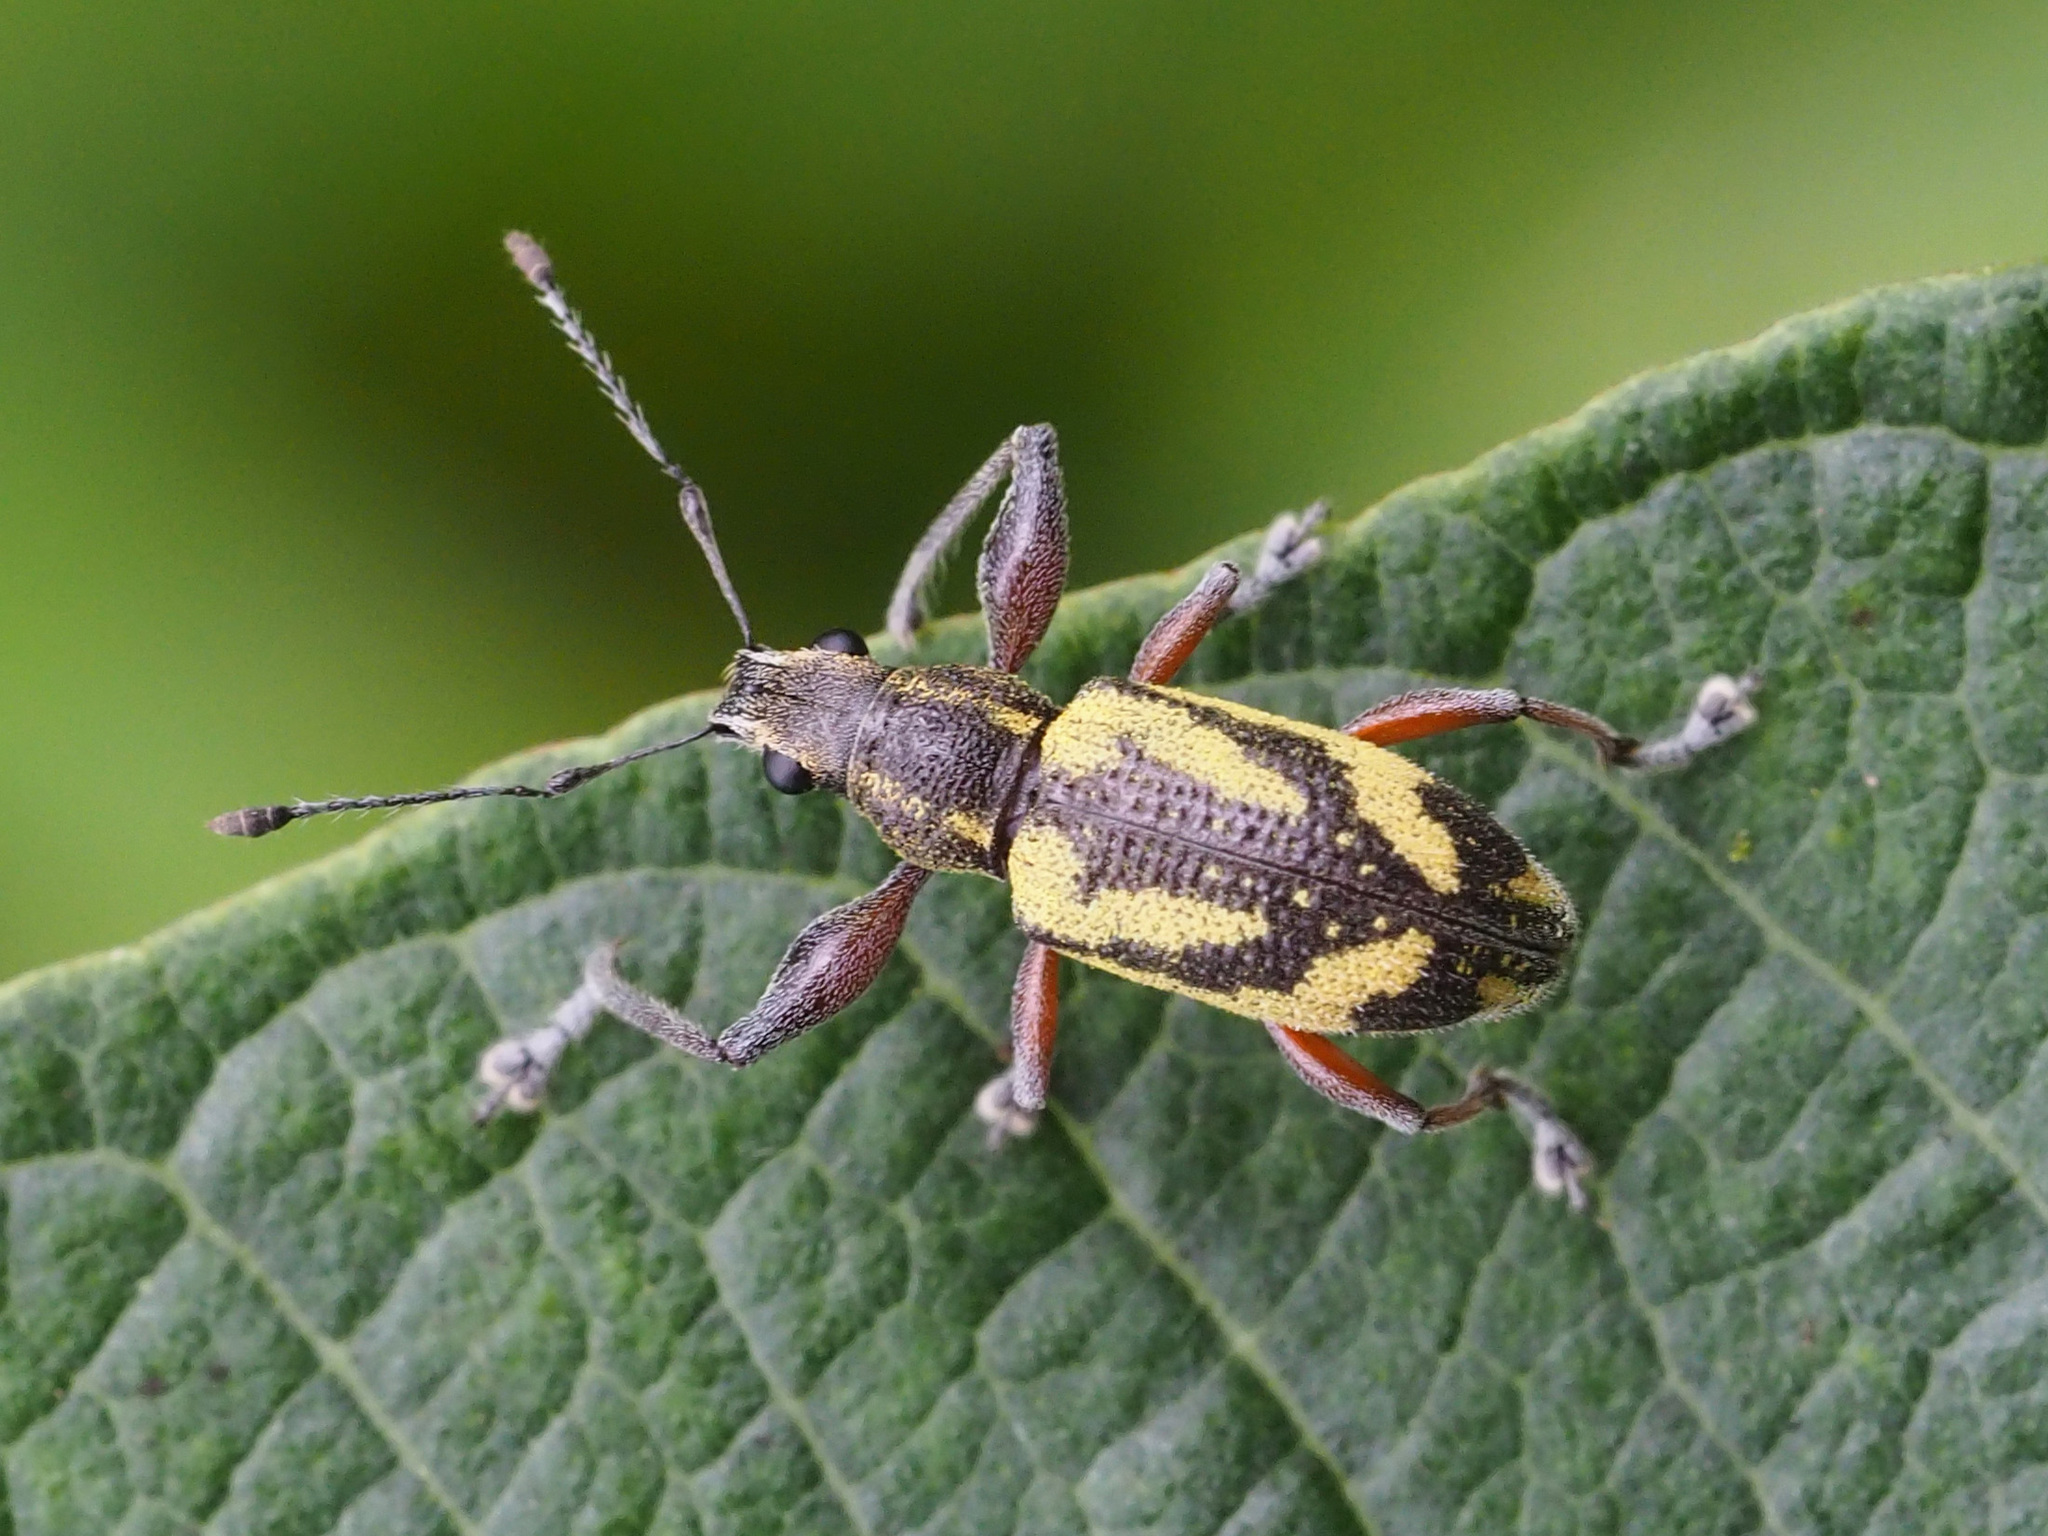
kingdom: Animalia
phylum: Arthropoda
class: Insecta
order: Coleoptera
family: Curculionidae
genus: Galapaganus
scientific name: Galapaganus howdenae
